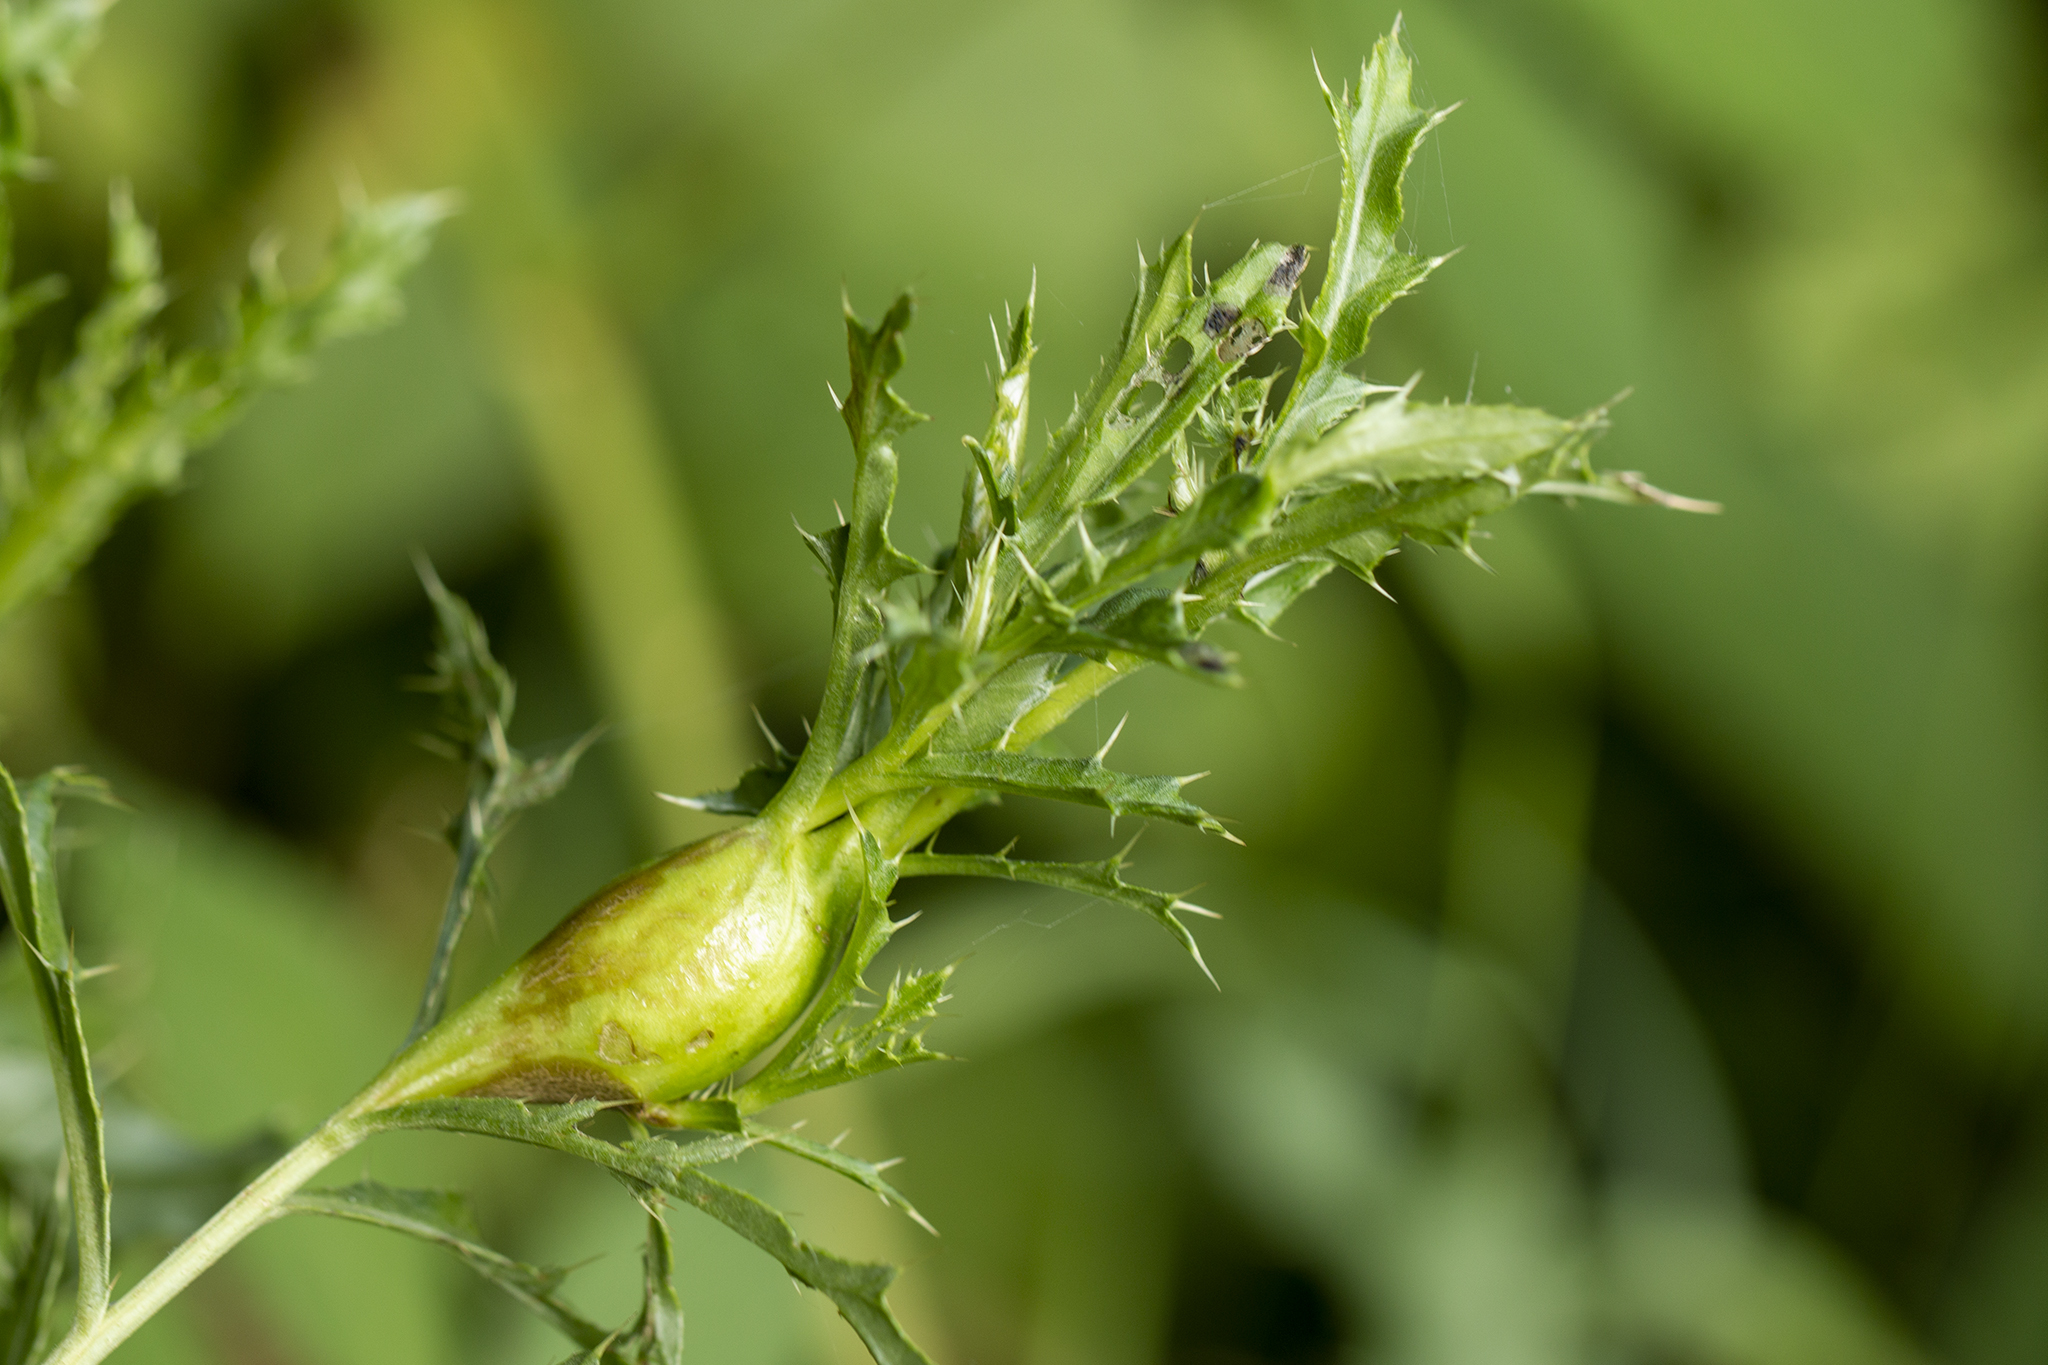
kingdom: Animalia
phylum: Arthropoda
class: Insecta
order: Diptera
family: Tephritidae
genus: Urophora
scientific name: Urophora cardui
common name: Fruit fly
